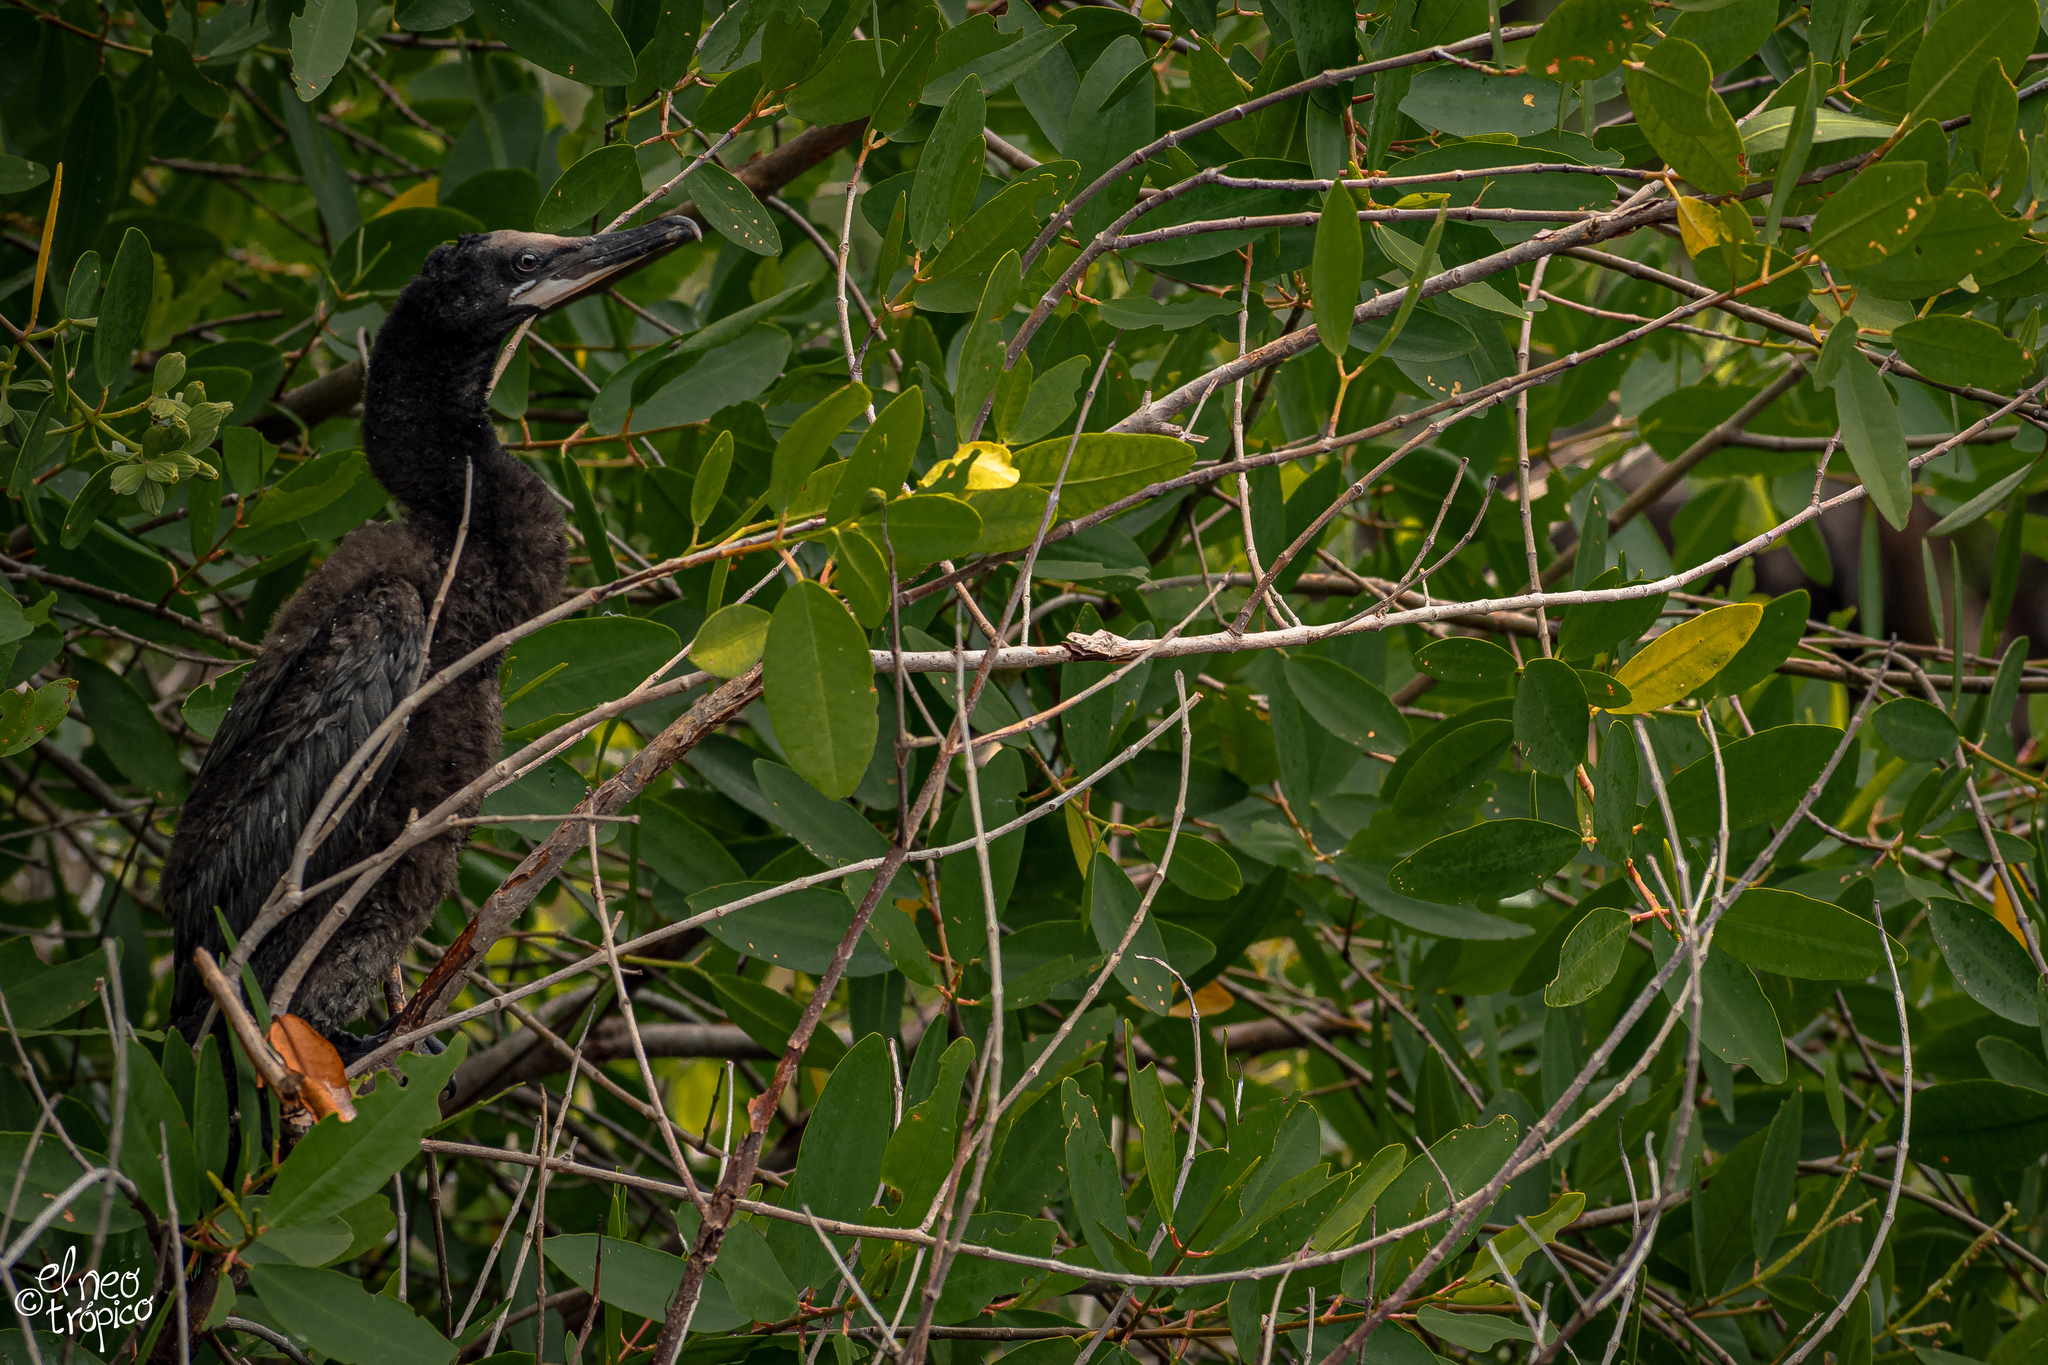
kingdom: Animalia
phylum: Chordata
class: Aves
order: Suliformes
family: Phalacrocoracidae
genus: Phalacrocorax
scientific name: Phalacrocorax brasilianus
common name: Neotropic cormorant
